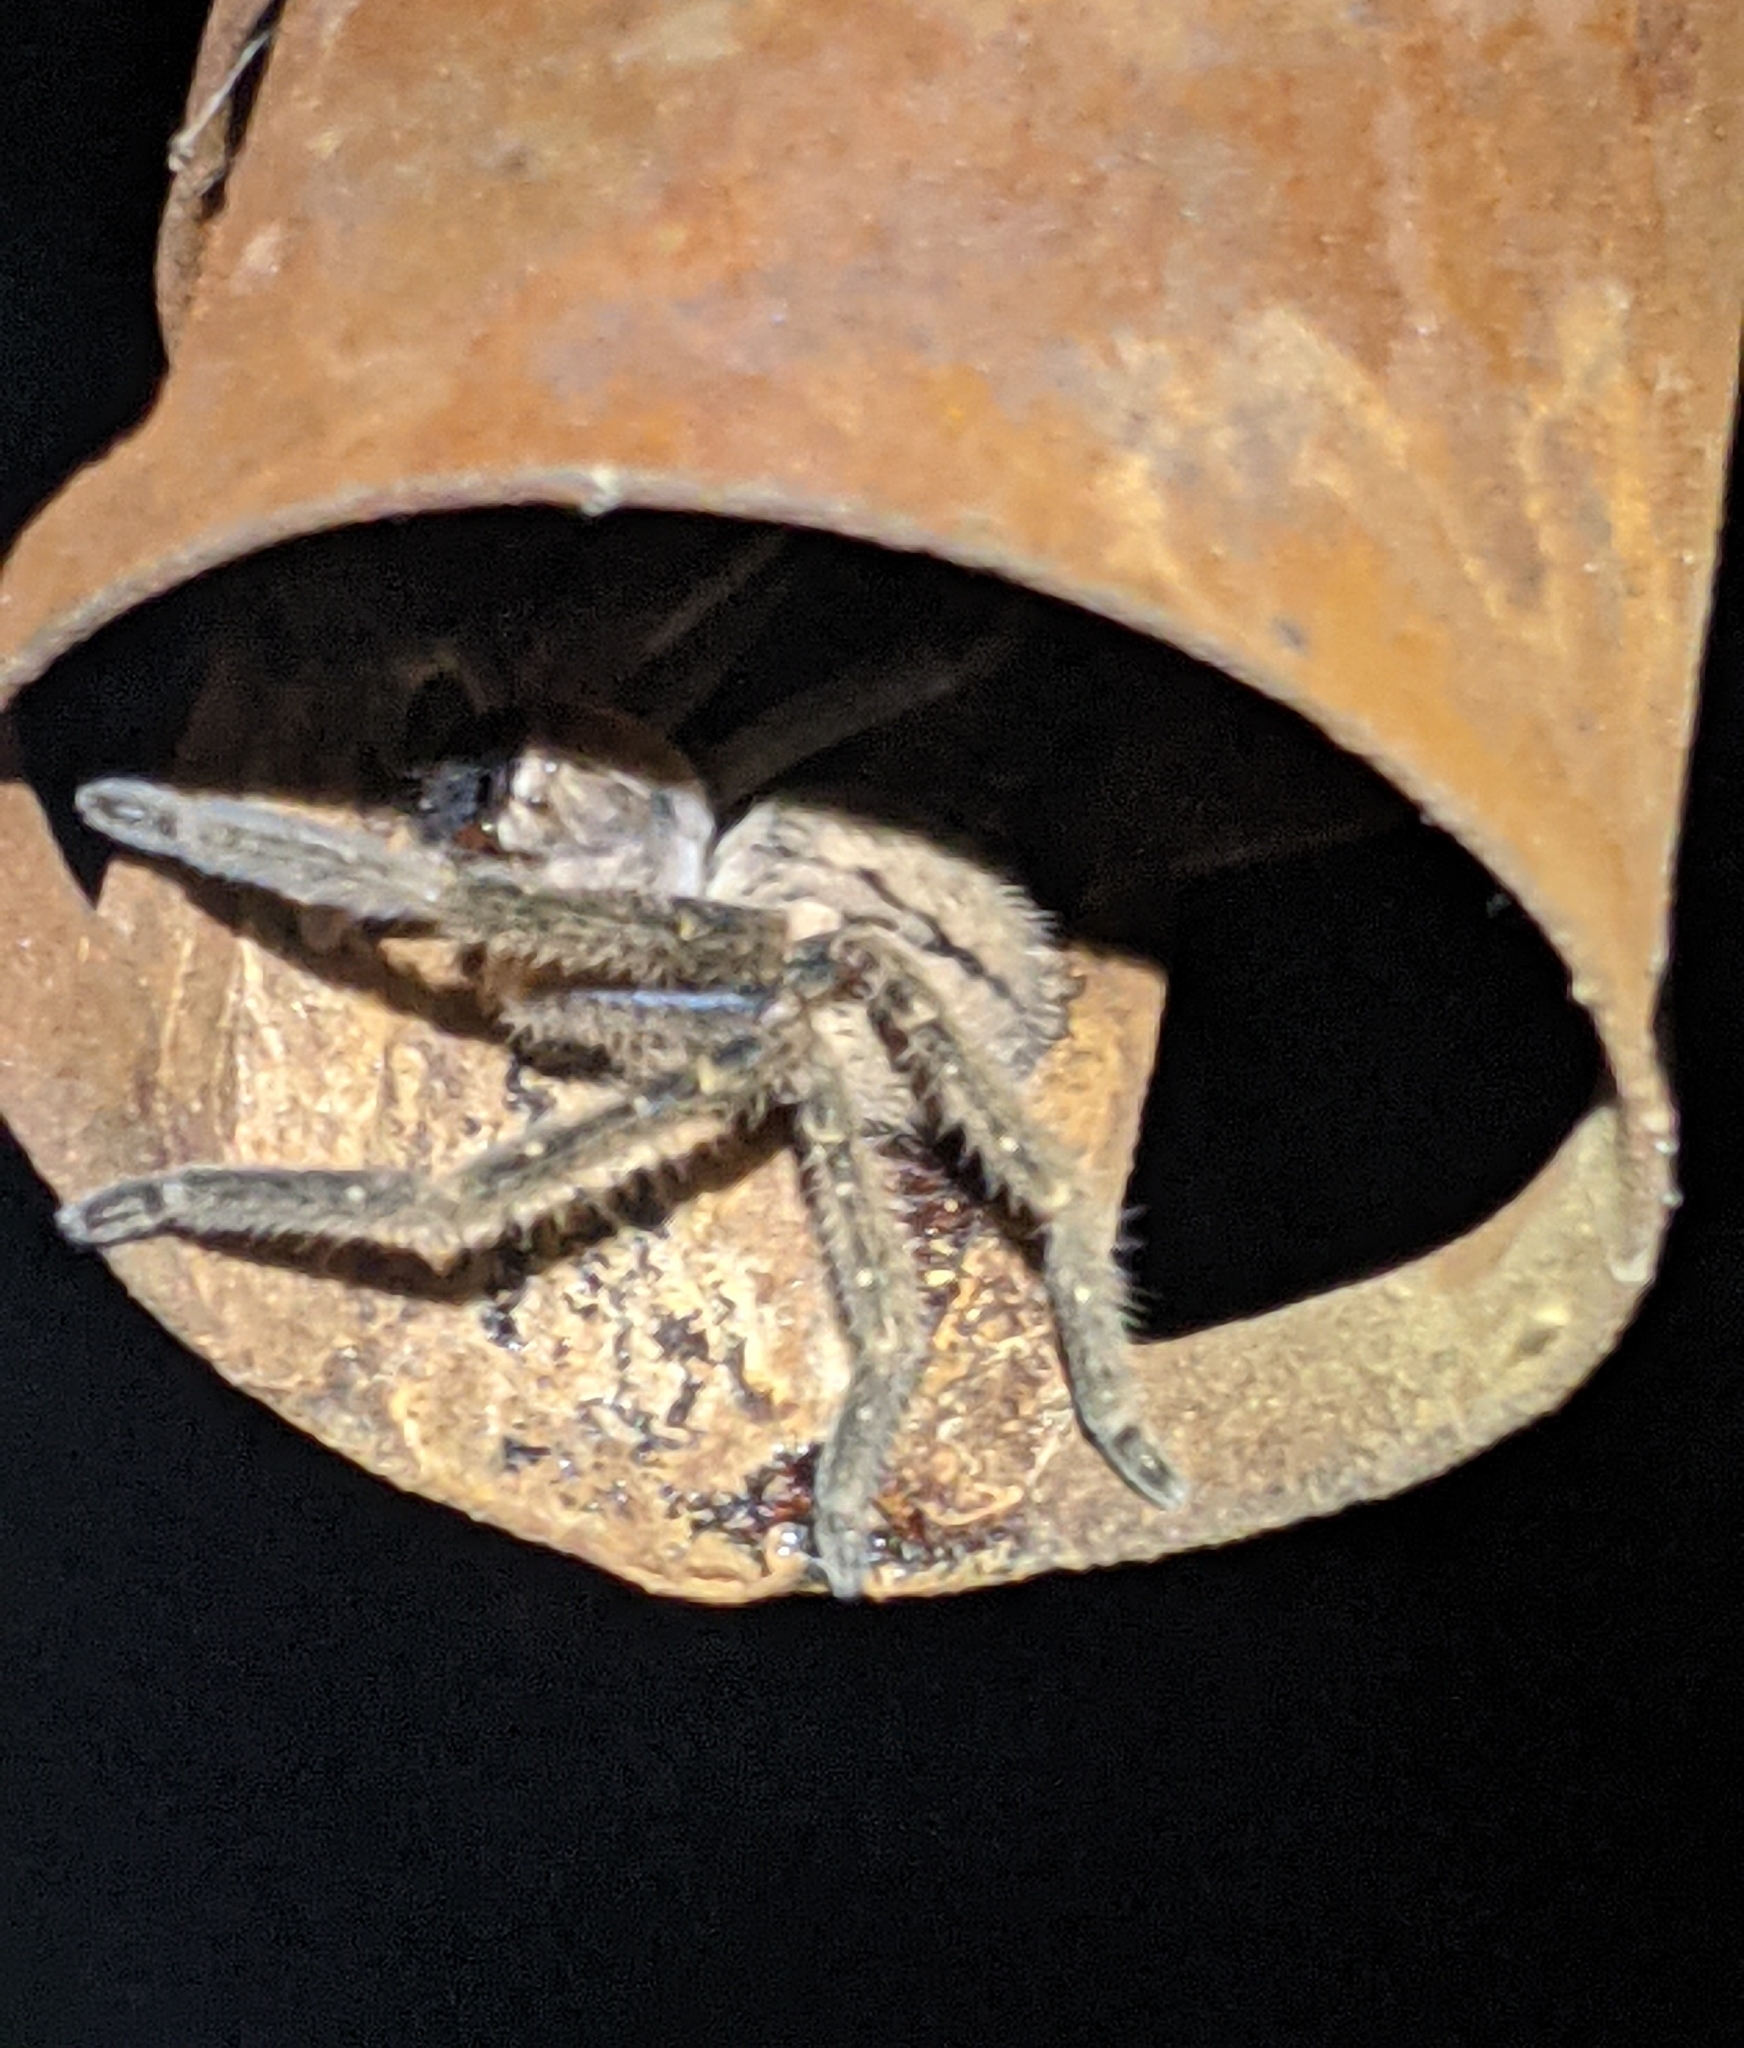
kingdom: Animalia
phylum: Arthropoda
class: Arachnida
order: Araneae
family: Sparassidae
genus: Olios
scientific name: Olios giganteus
